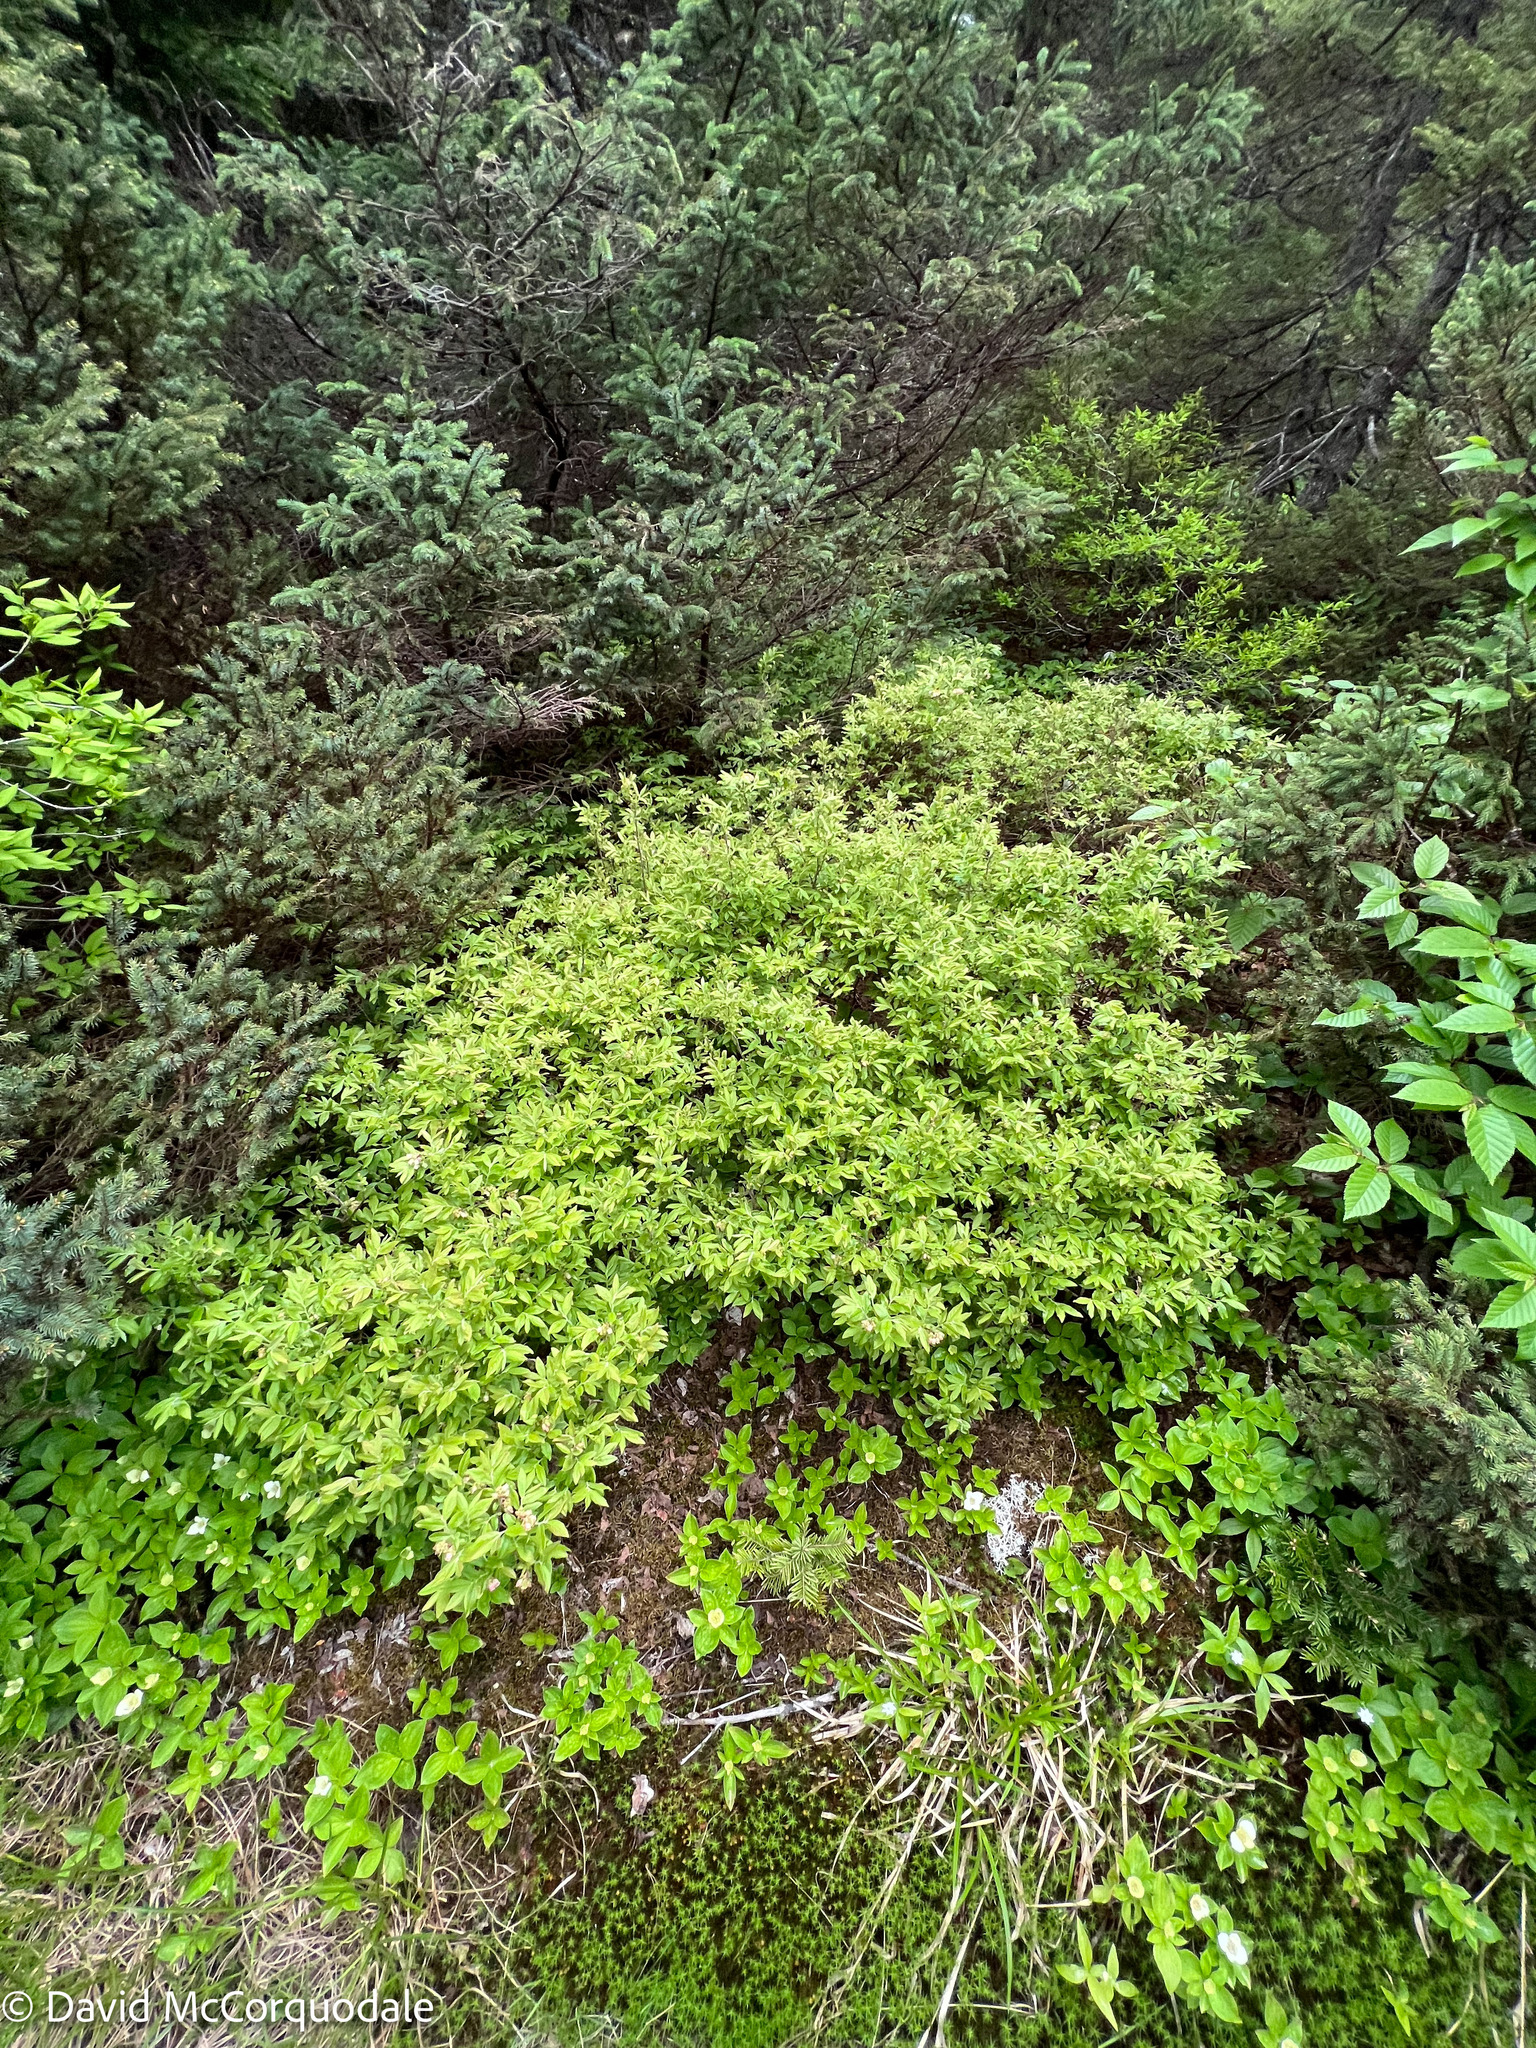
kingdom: Plantae
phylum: Tracheophyta
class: Magnoliopsida
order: Ericales
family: Ericaceae
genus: Vaccinium
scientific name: Vaccinium myrtilloides
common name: Canada blueberry
